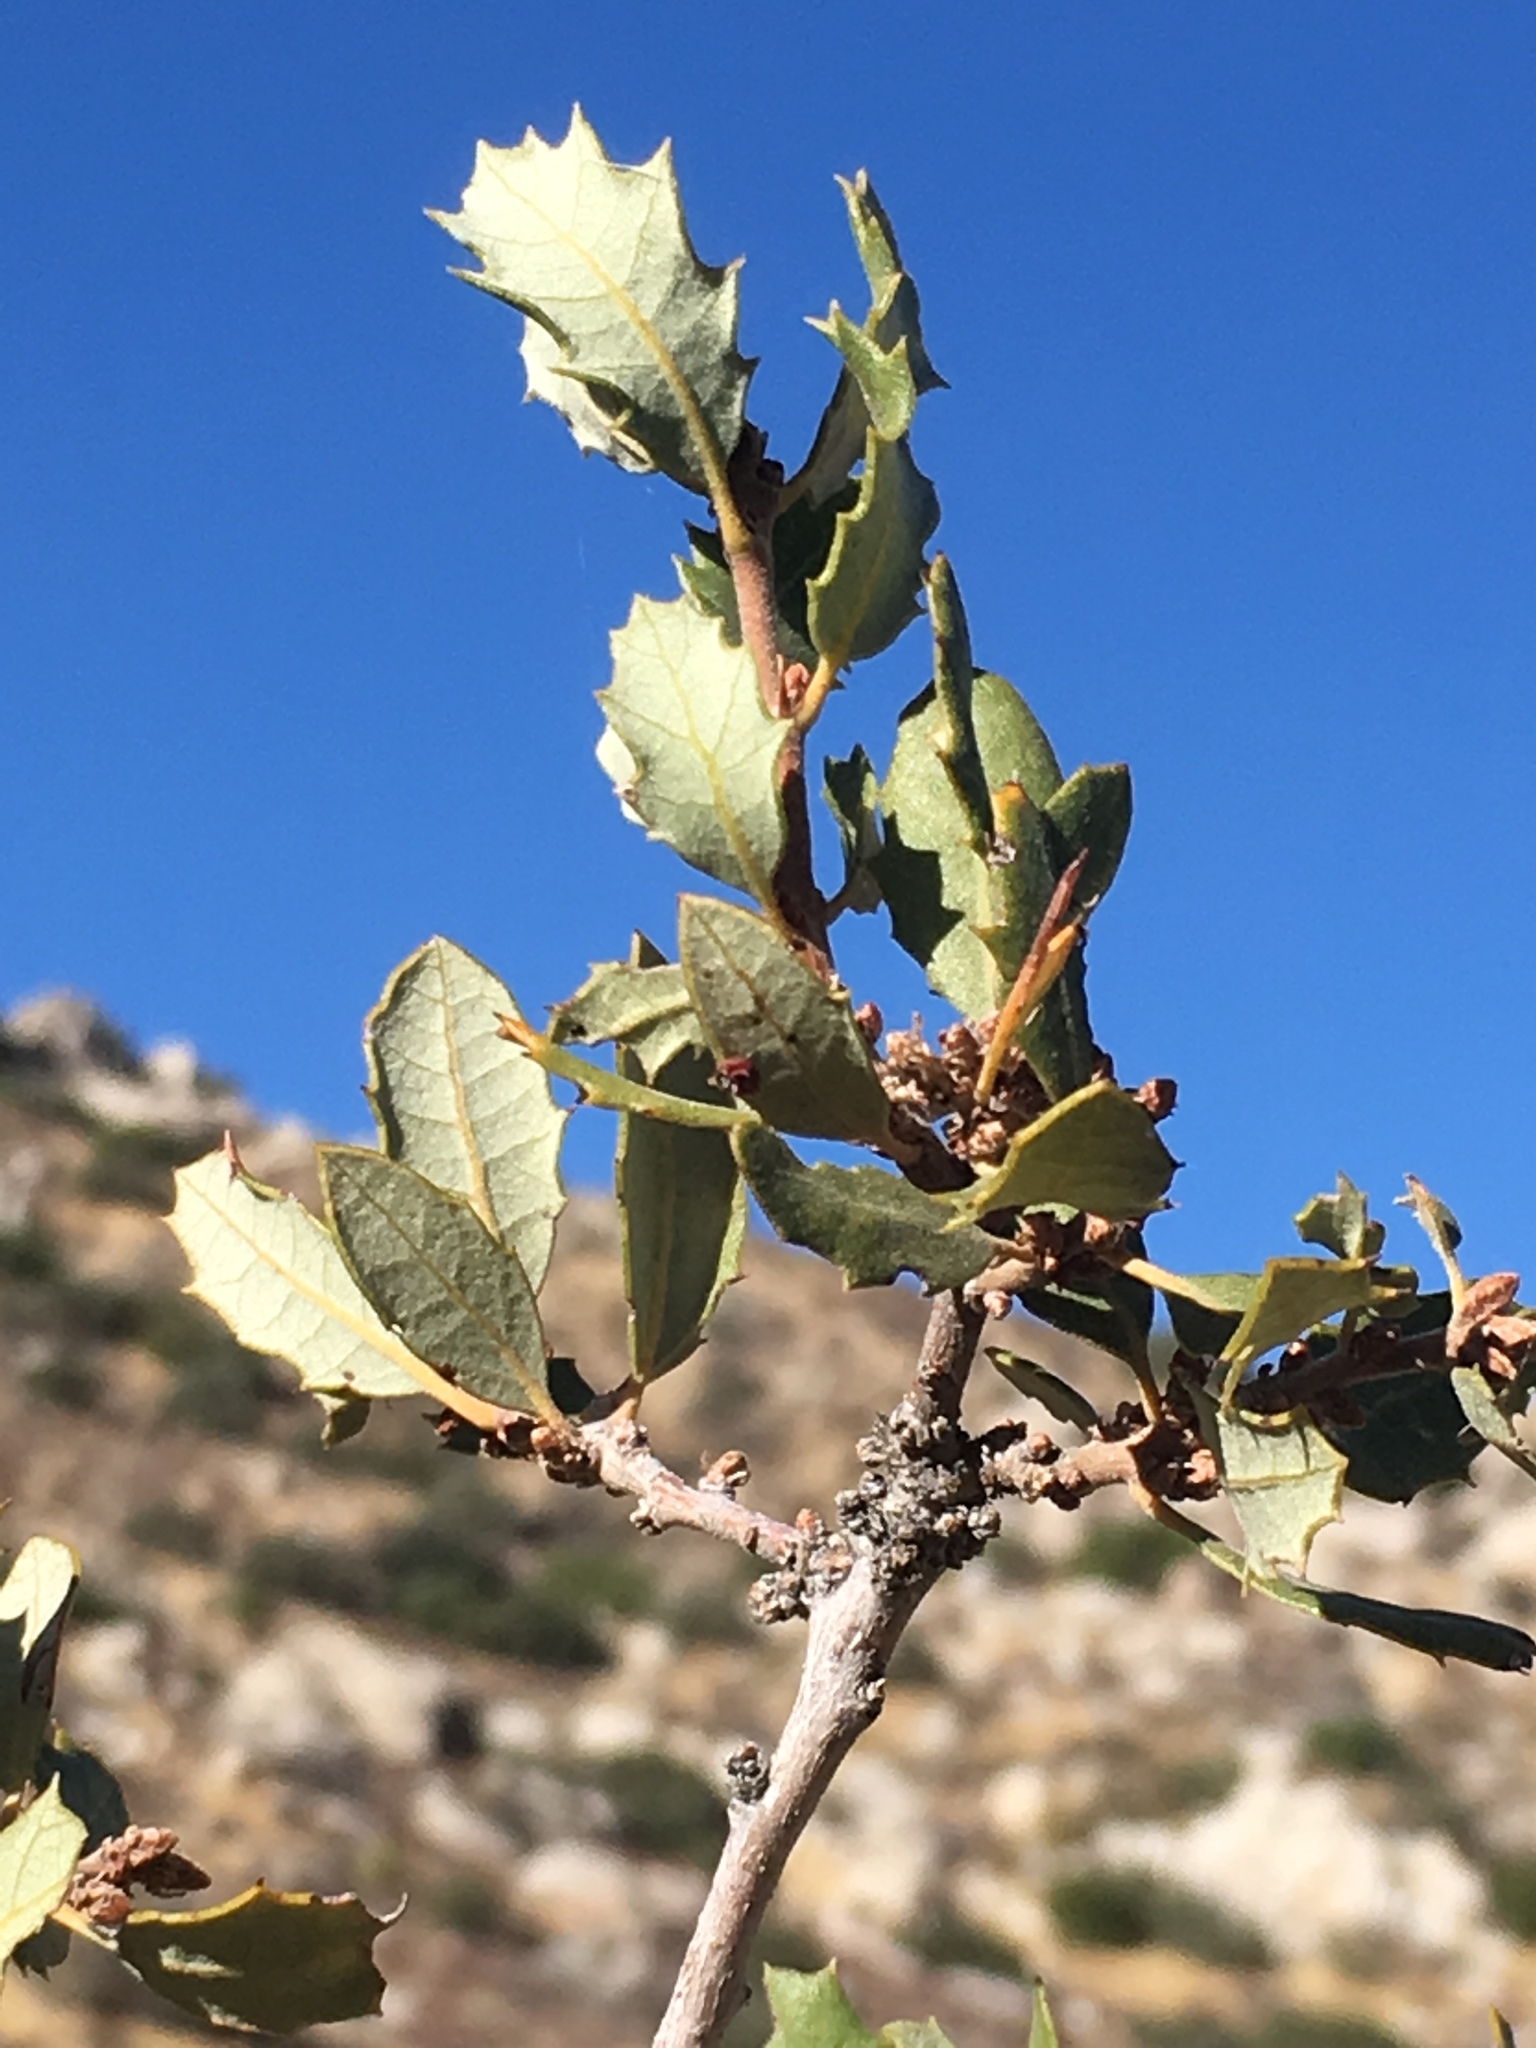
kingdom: Plantae
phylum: Tracheophyta
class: Magnoliopsida
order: Fagales
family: Fagaceae
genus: Quercus
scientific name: Quercus cornelius-mulleri
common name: Muller oak
